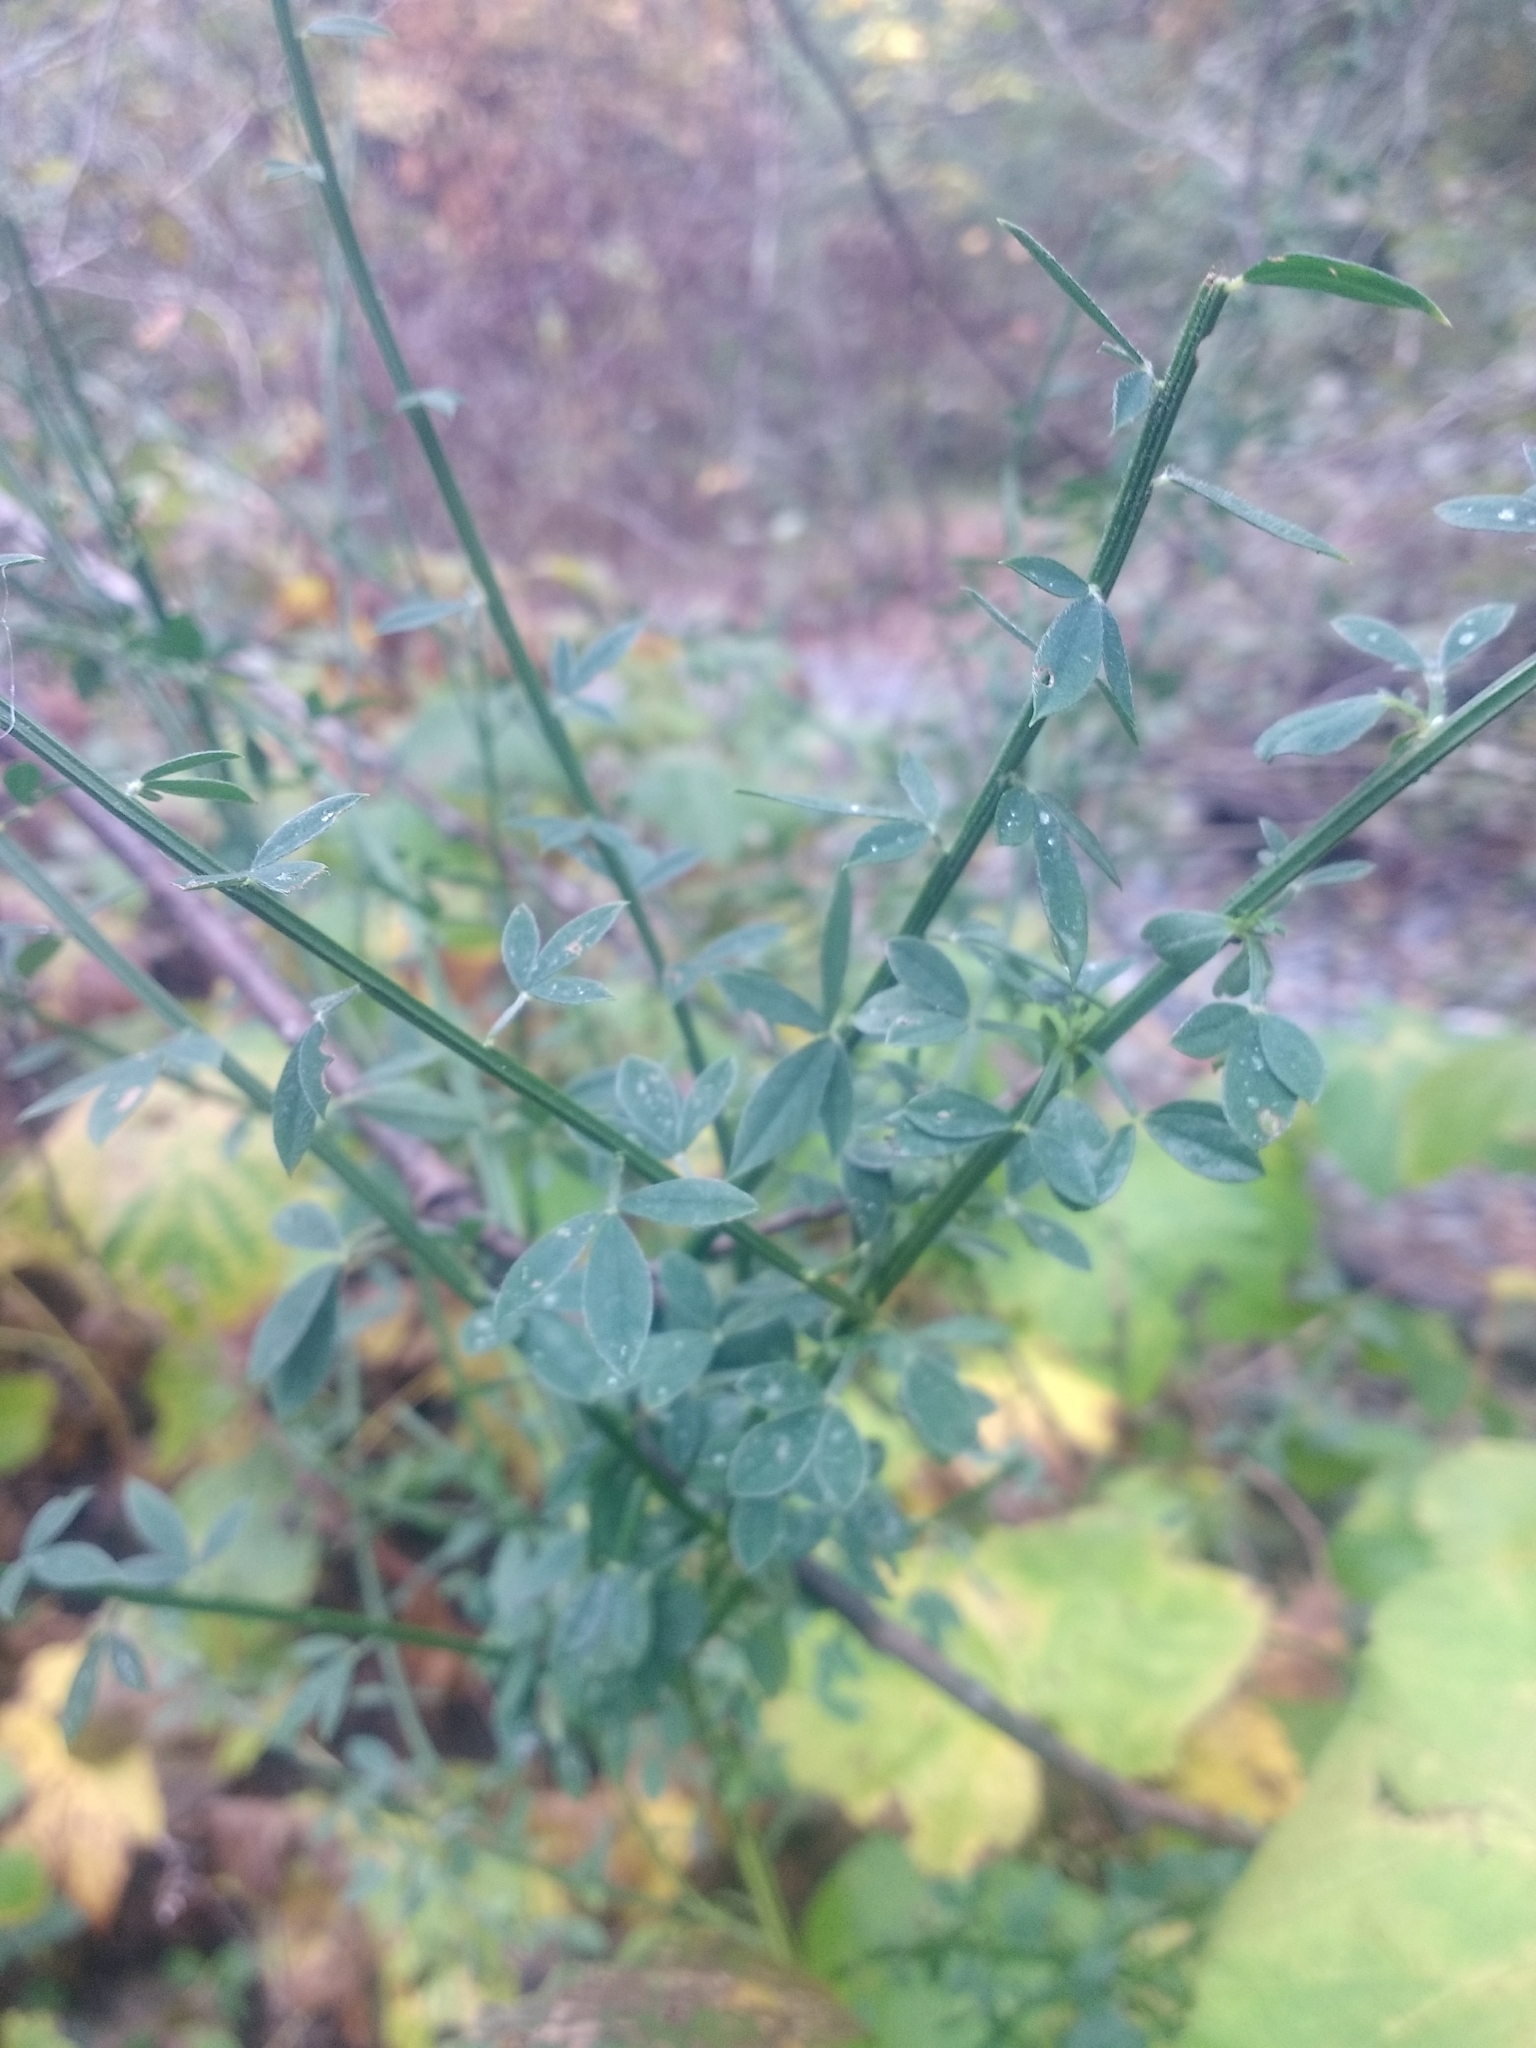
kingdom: Plantae
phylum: Tracheophyta
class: Magnoliopsida
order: Fabales
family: Fabaceae
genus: Cytisus
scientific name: Cytisus scoparius
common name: Scotch broom
